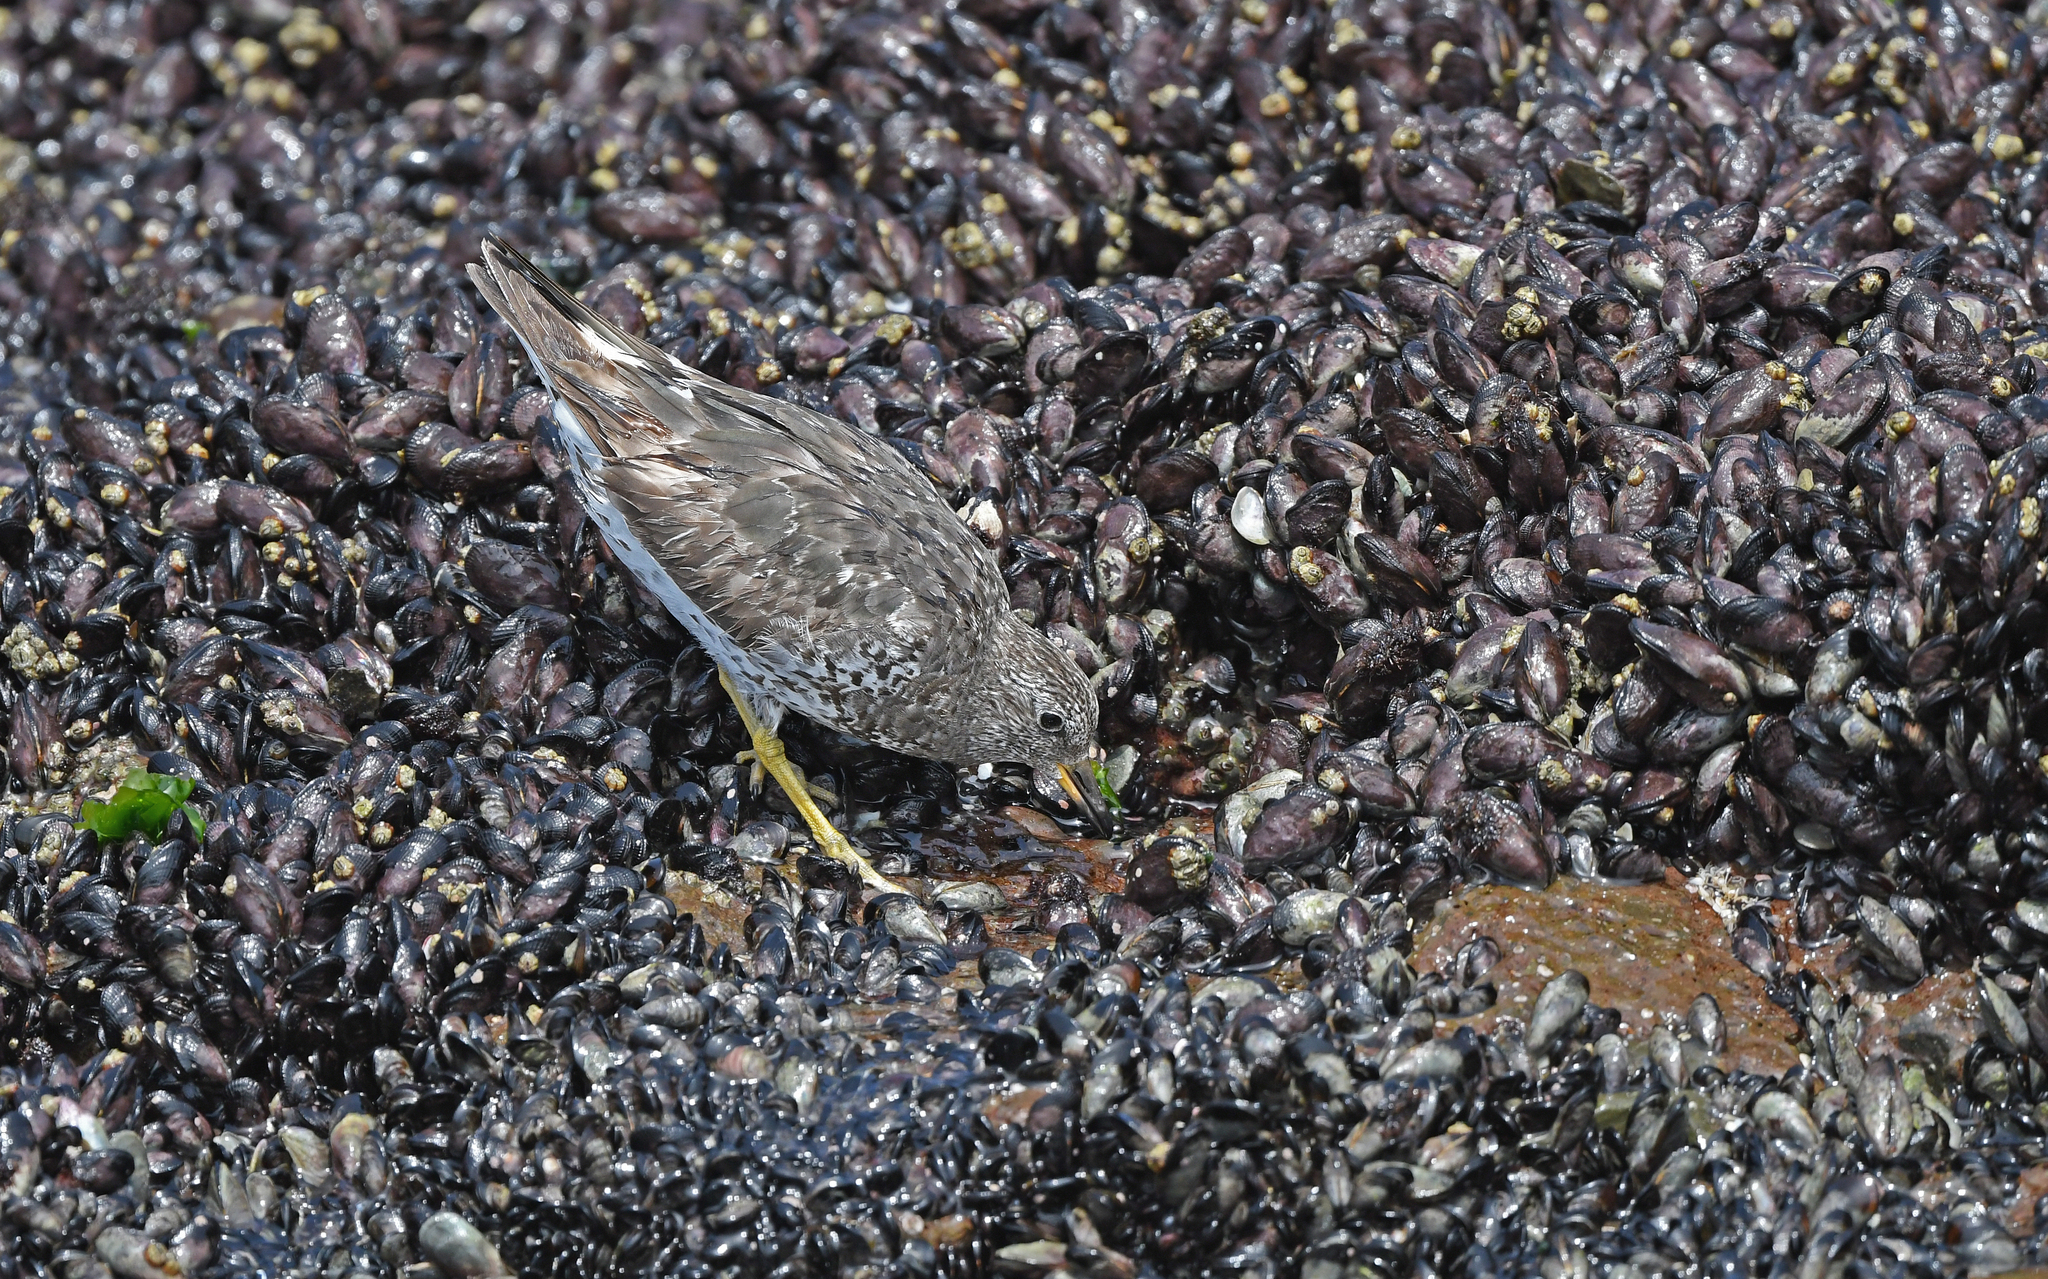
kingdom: Animalia
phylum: Chordata
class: Aves
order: Charadriiformes
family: Scolopacidae
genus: Calidris
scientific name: Calidris virgata
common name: Surfbird
